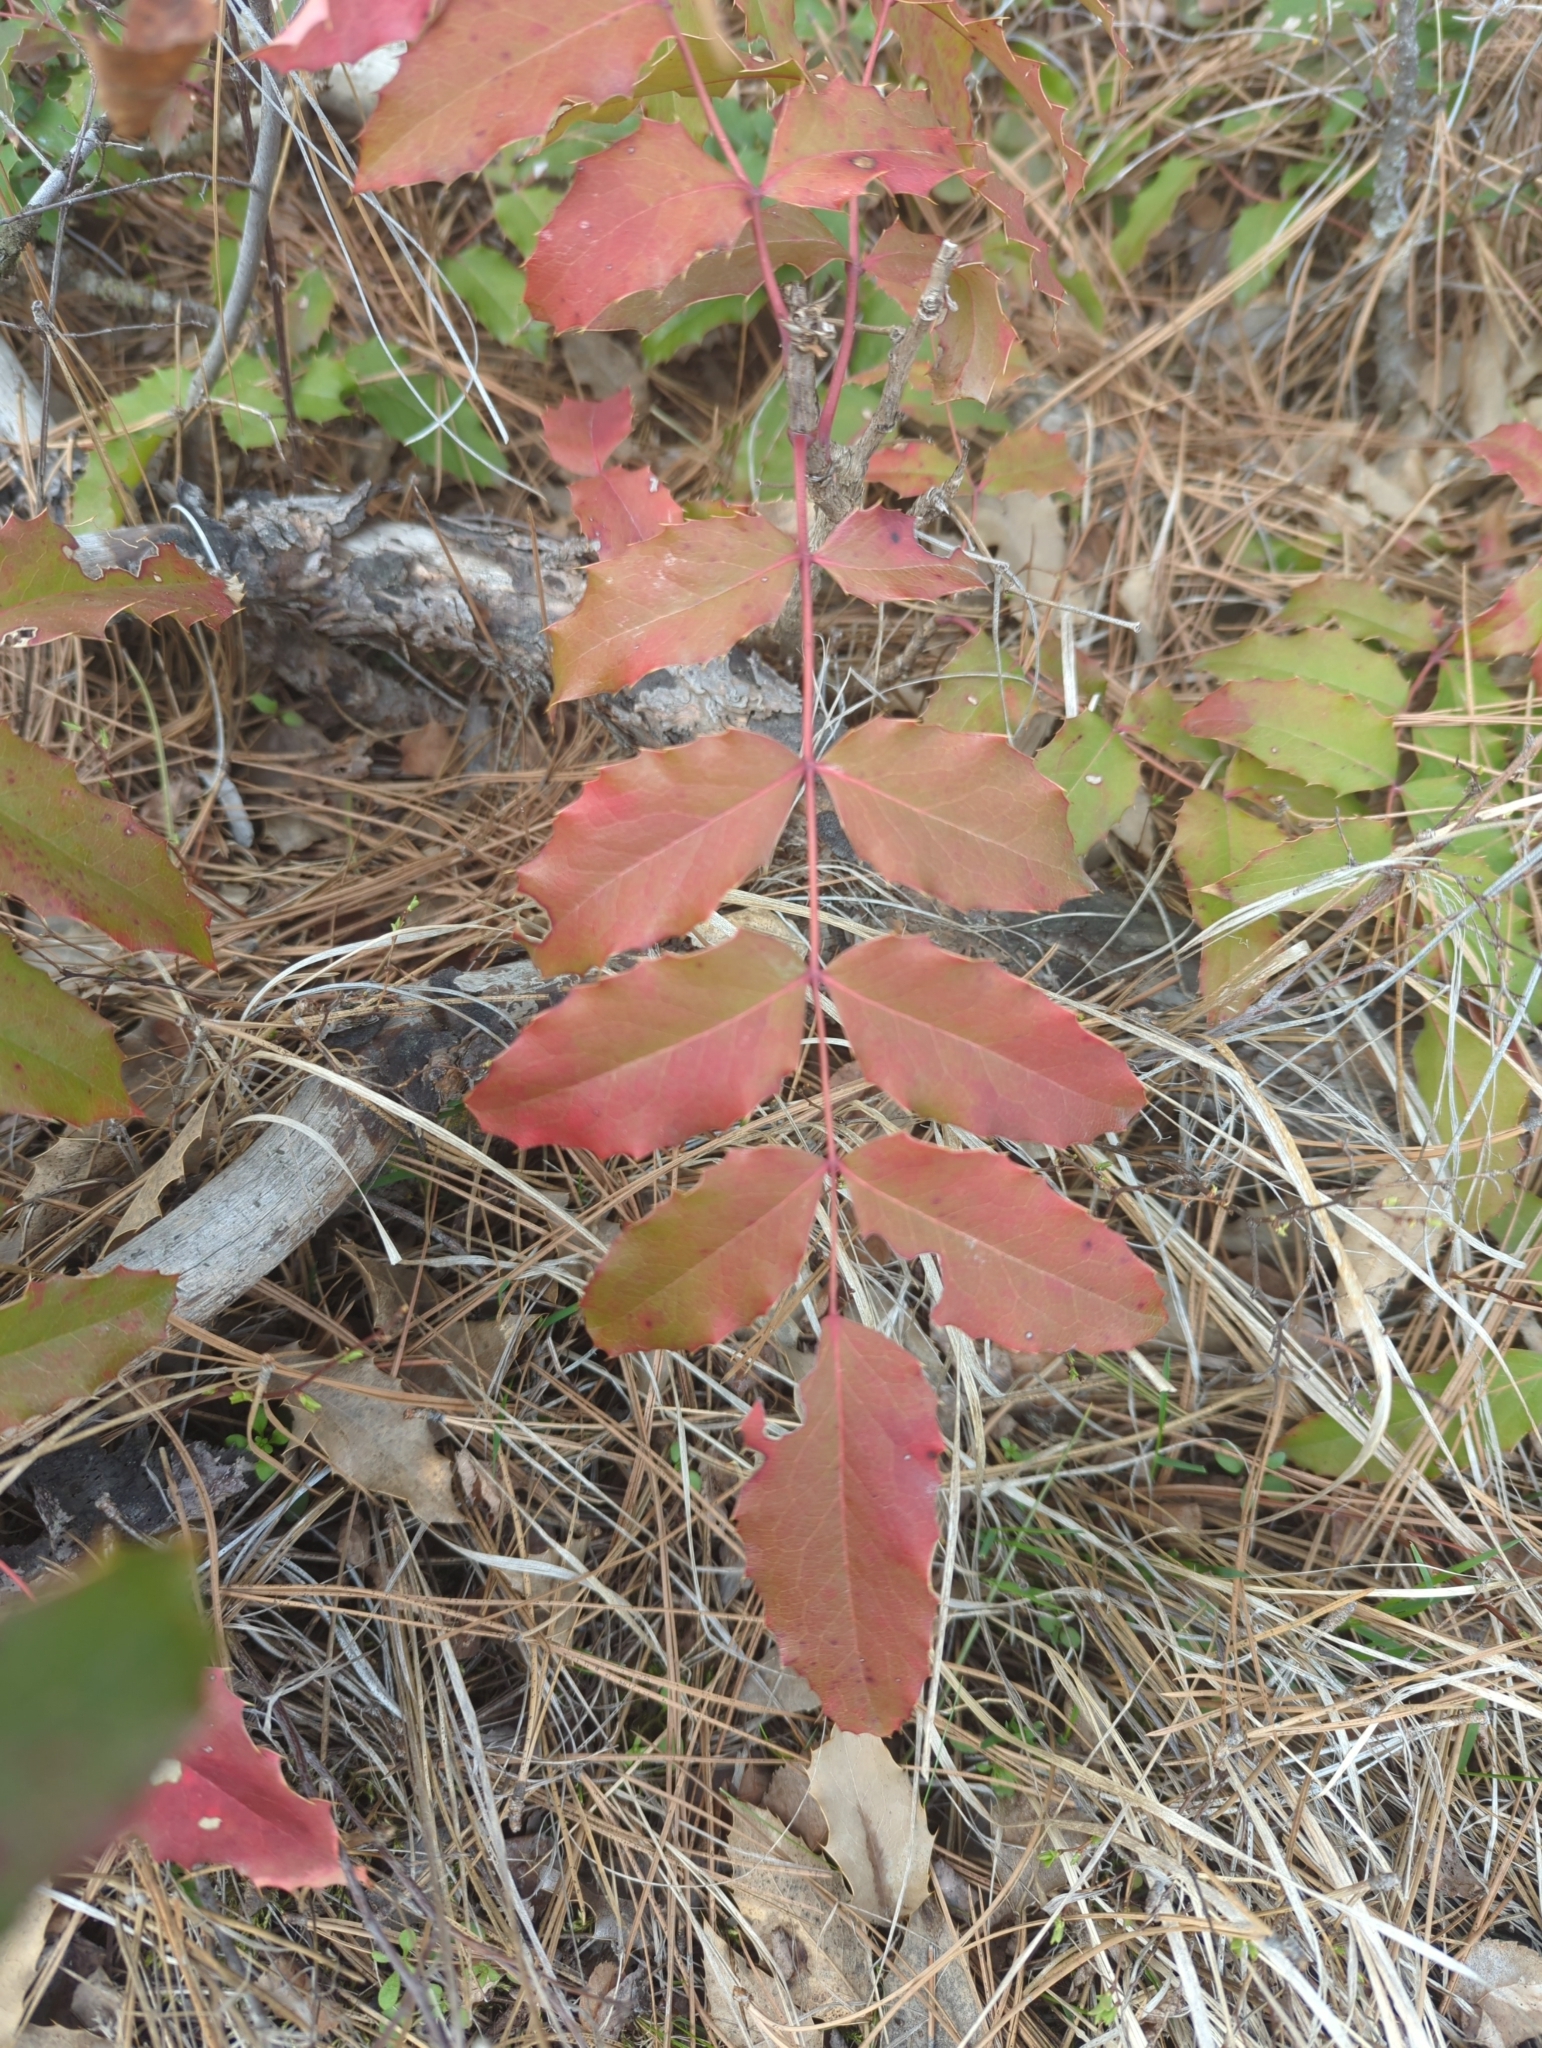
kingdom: Plantae
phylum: Tracheophyta
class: Magnoliopsida
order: Ranunculales
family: Berberidaceae
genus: Mahonia
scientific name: Mahonia repens
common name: Creeping oregon-grape
